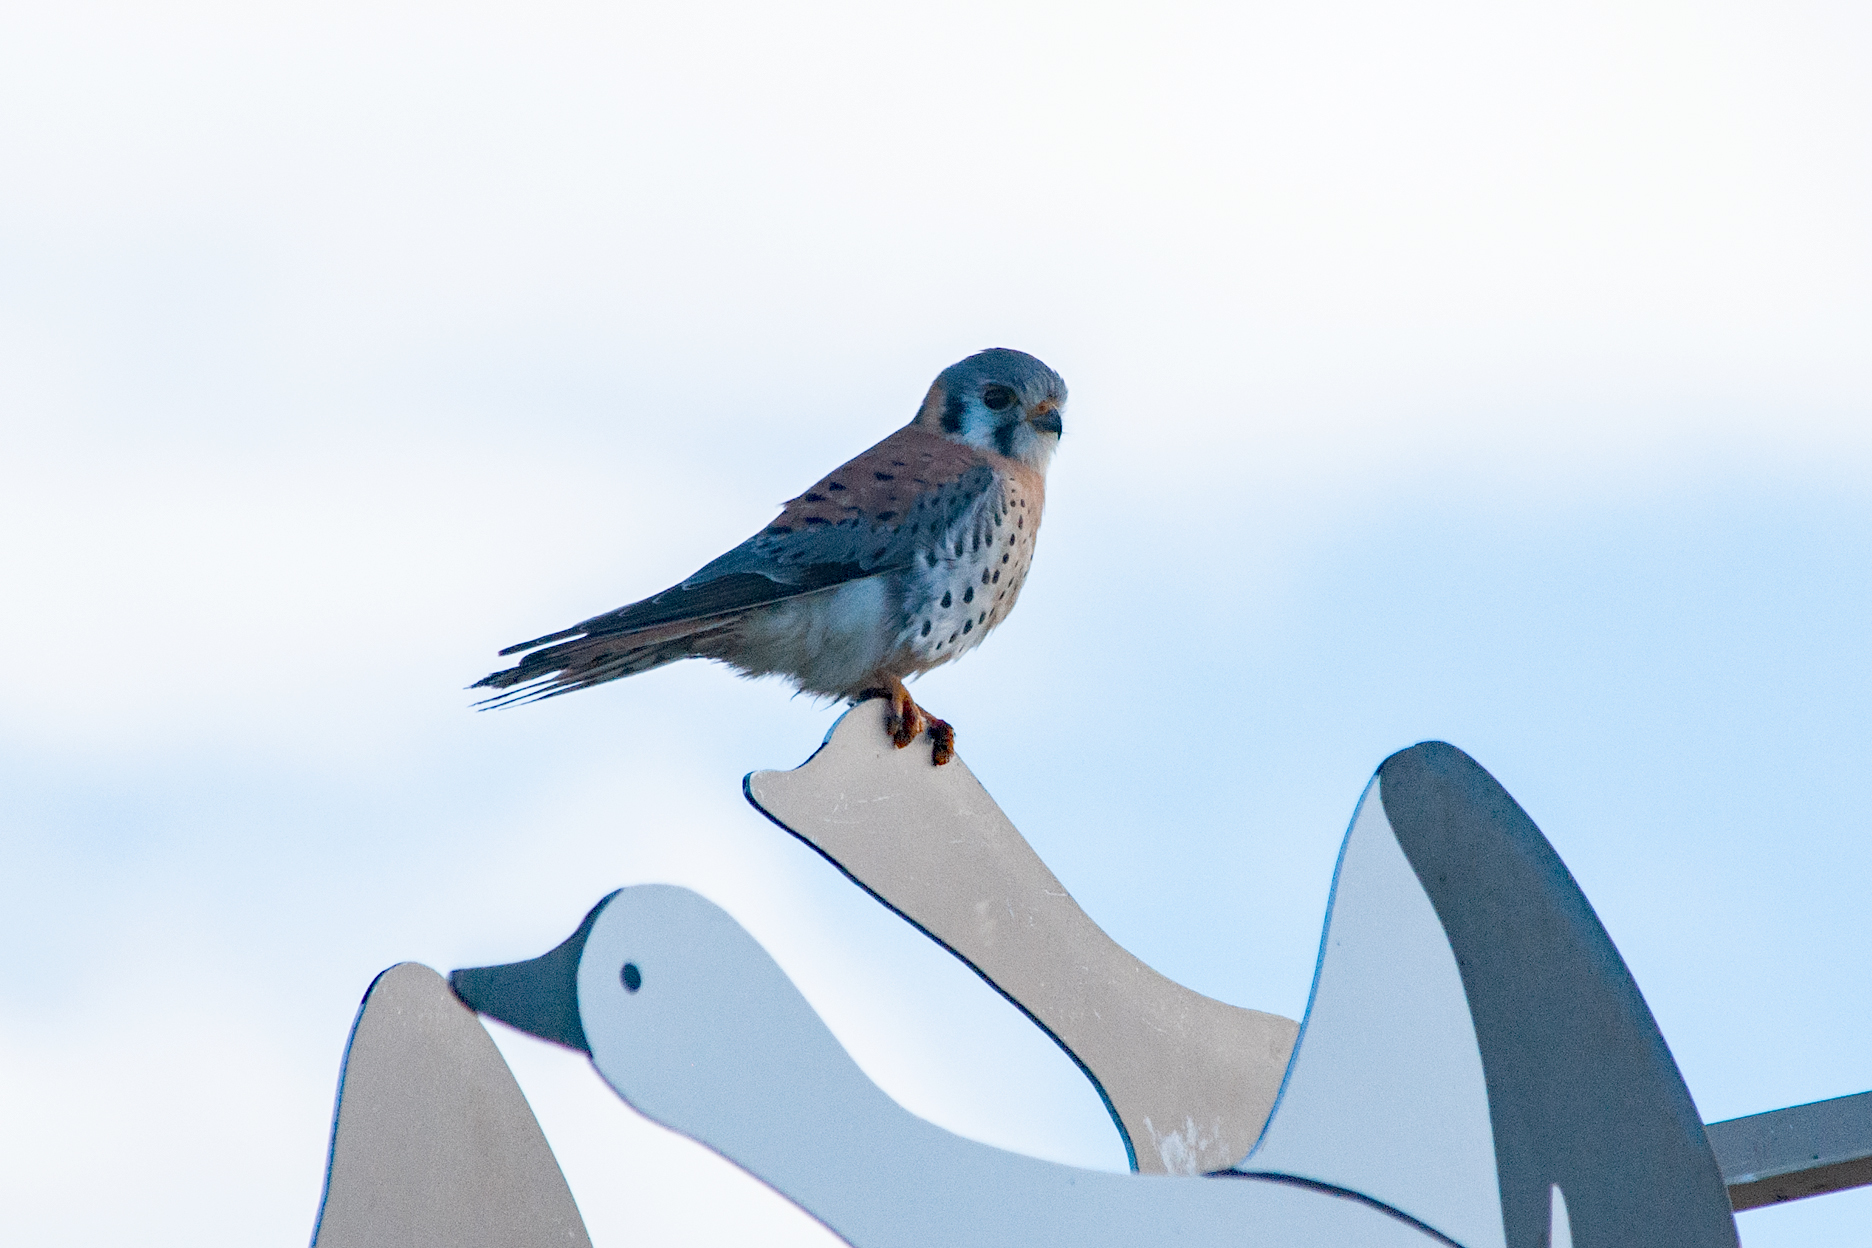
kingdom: Animalia
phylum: Chordata
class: Aves
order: Falconiformes
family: Falconidae
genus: Falco
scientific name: Falco sparverius
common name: American kestrel
